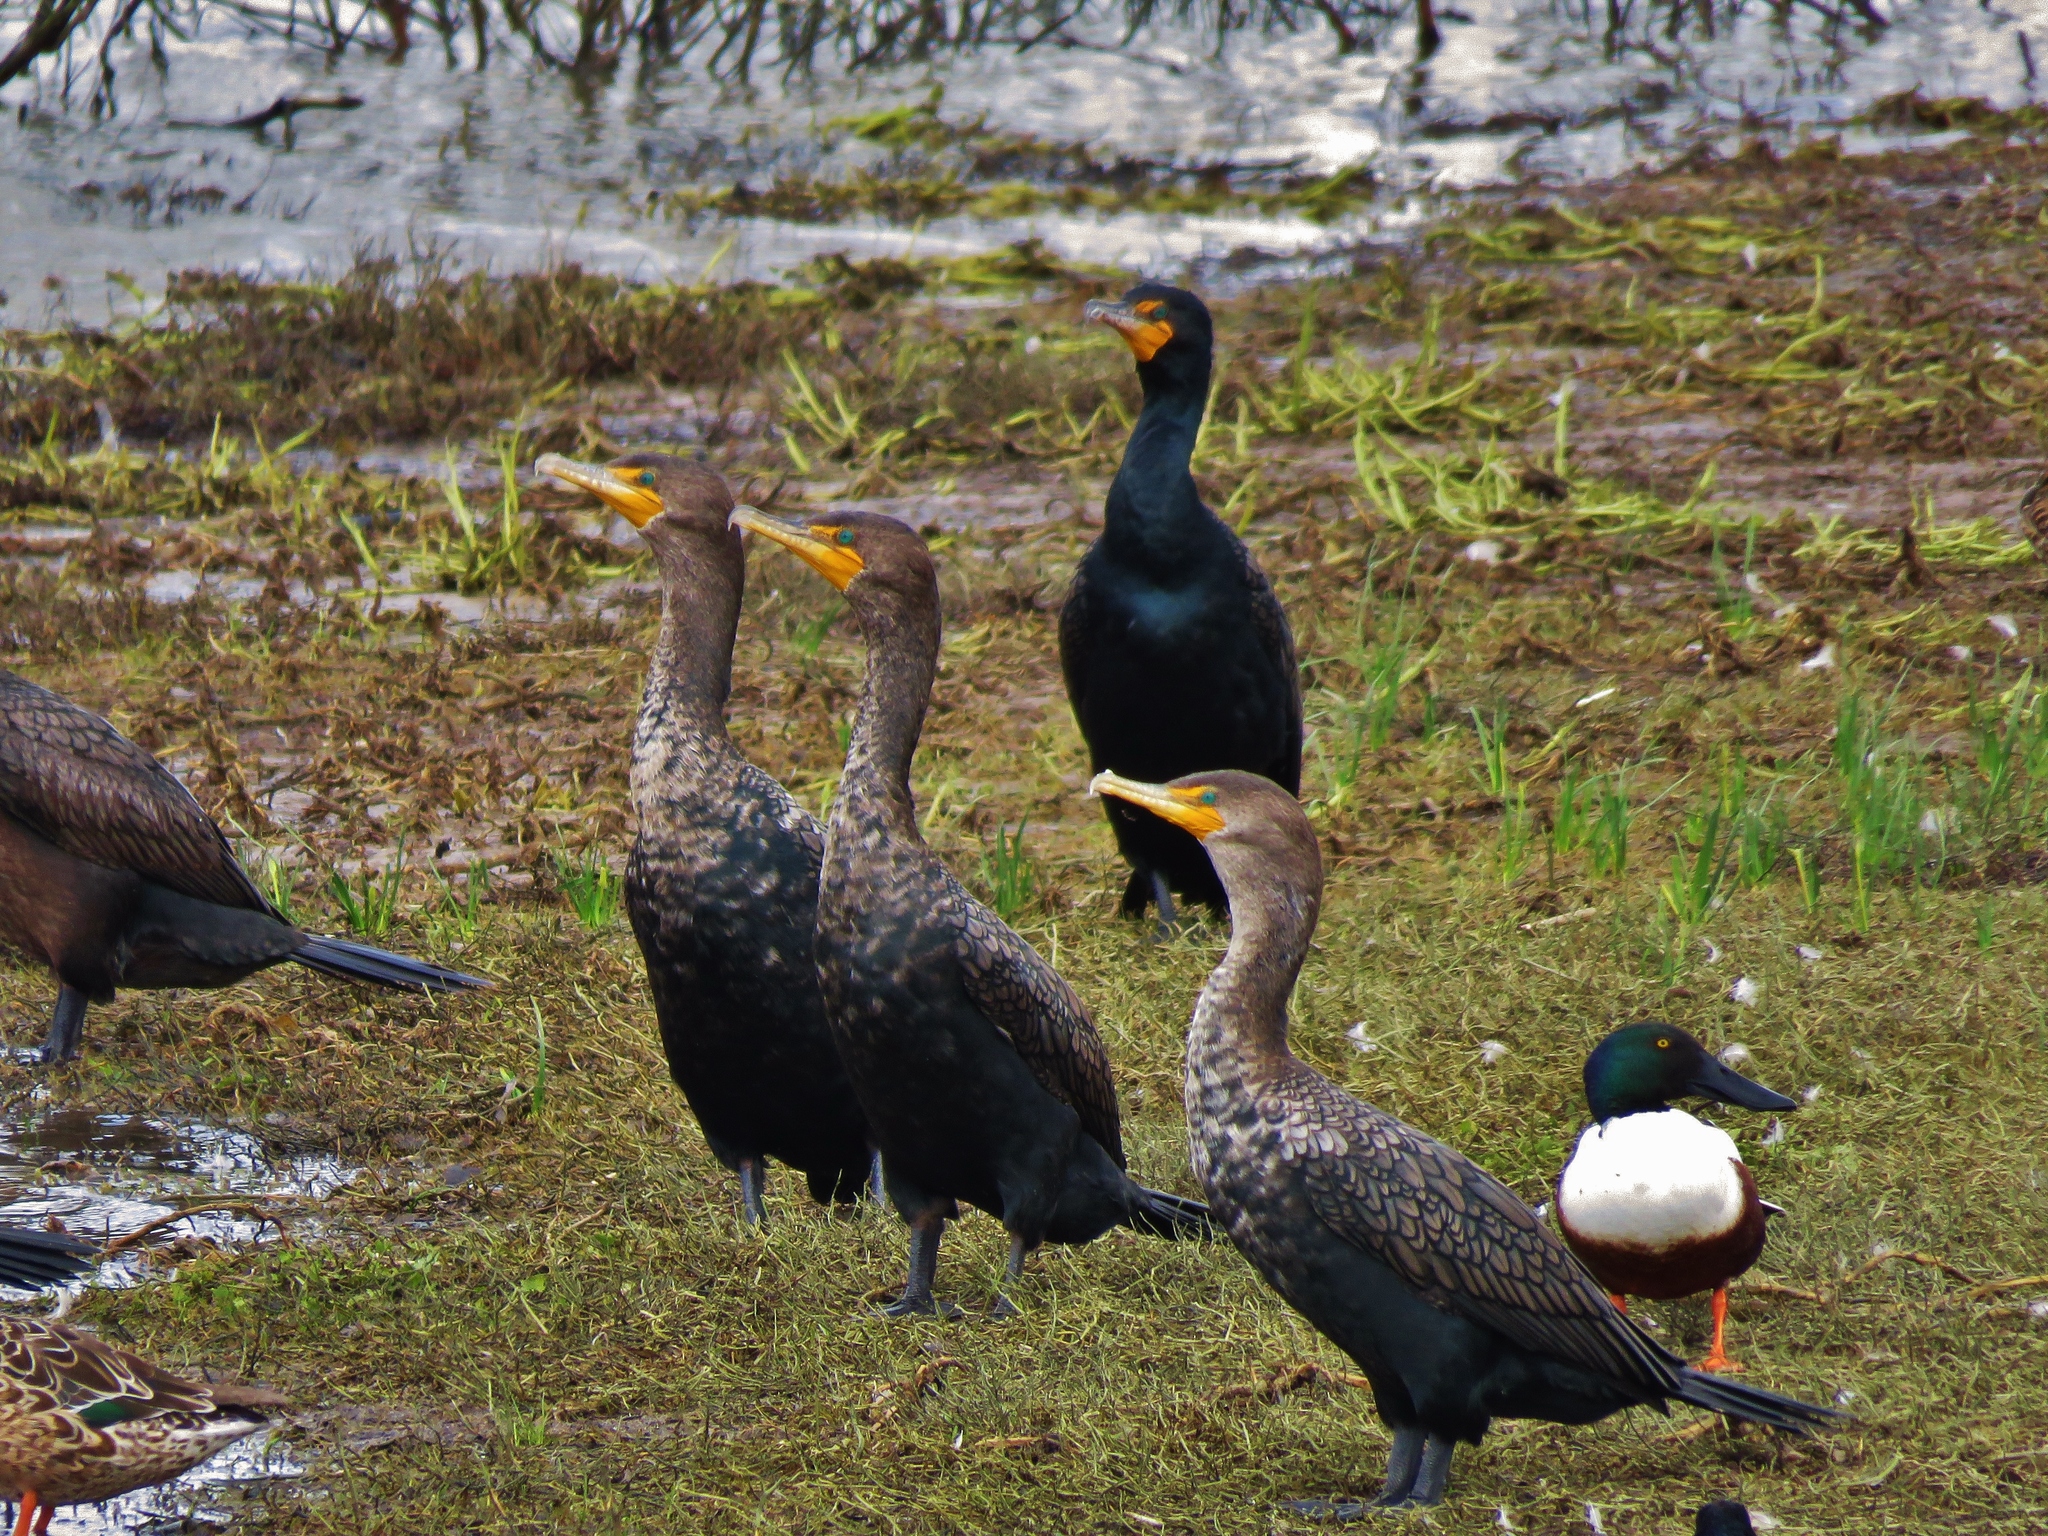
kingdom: Animalia
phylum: Chordata
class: Aves
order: Suliformes
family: Phalacrocoracidae
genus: Phalacrocorax
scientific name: Phalacrocorax auritus
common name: Double-crested cormorant
